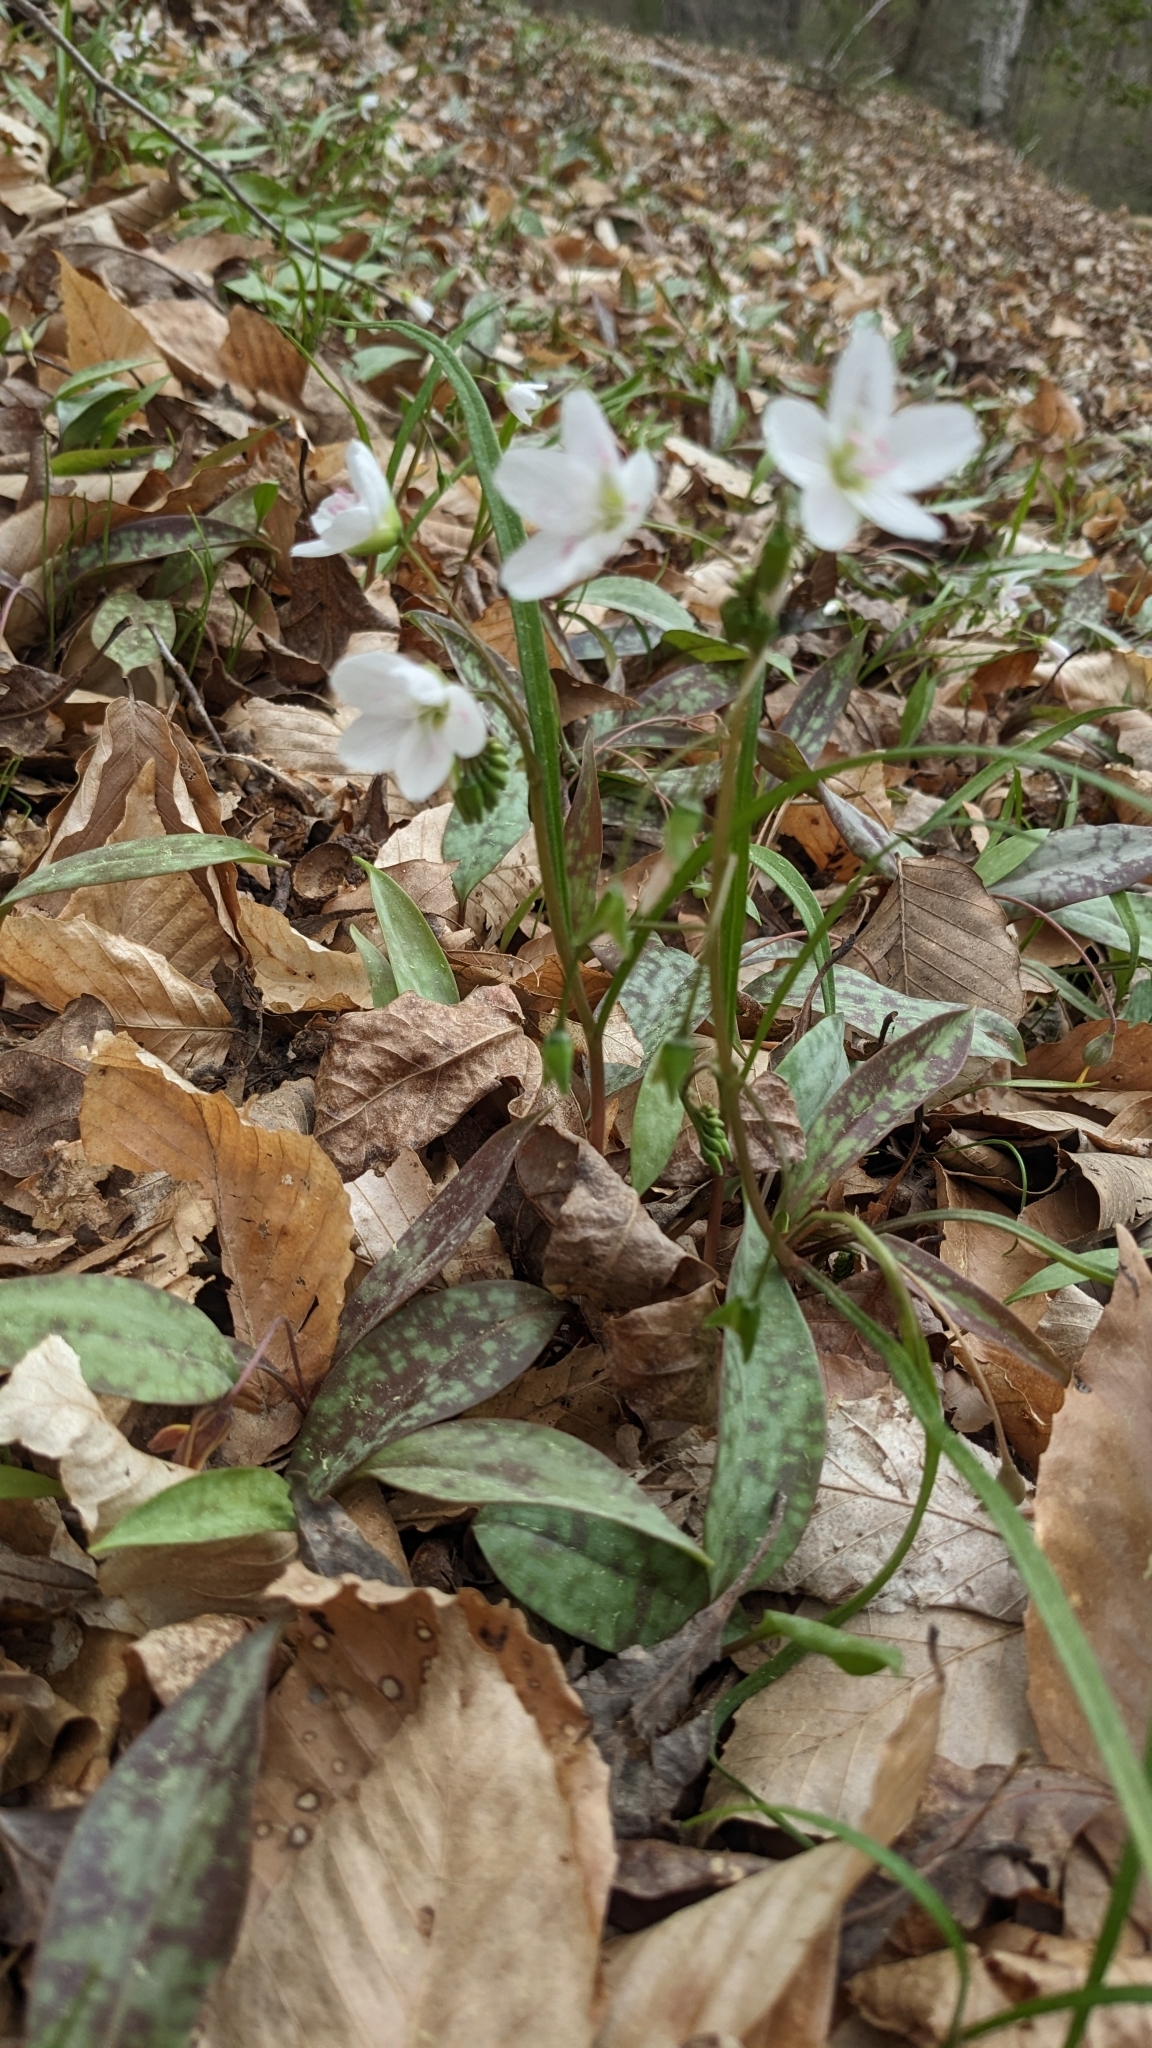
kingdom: Plantae
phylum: Tracheophyta
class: Magnoliopsida
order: Caryophyllales
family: Montiaceae
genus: Claytonia
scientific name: Claytonia virginica
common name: Virginia springbeauty
